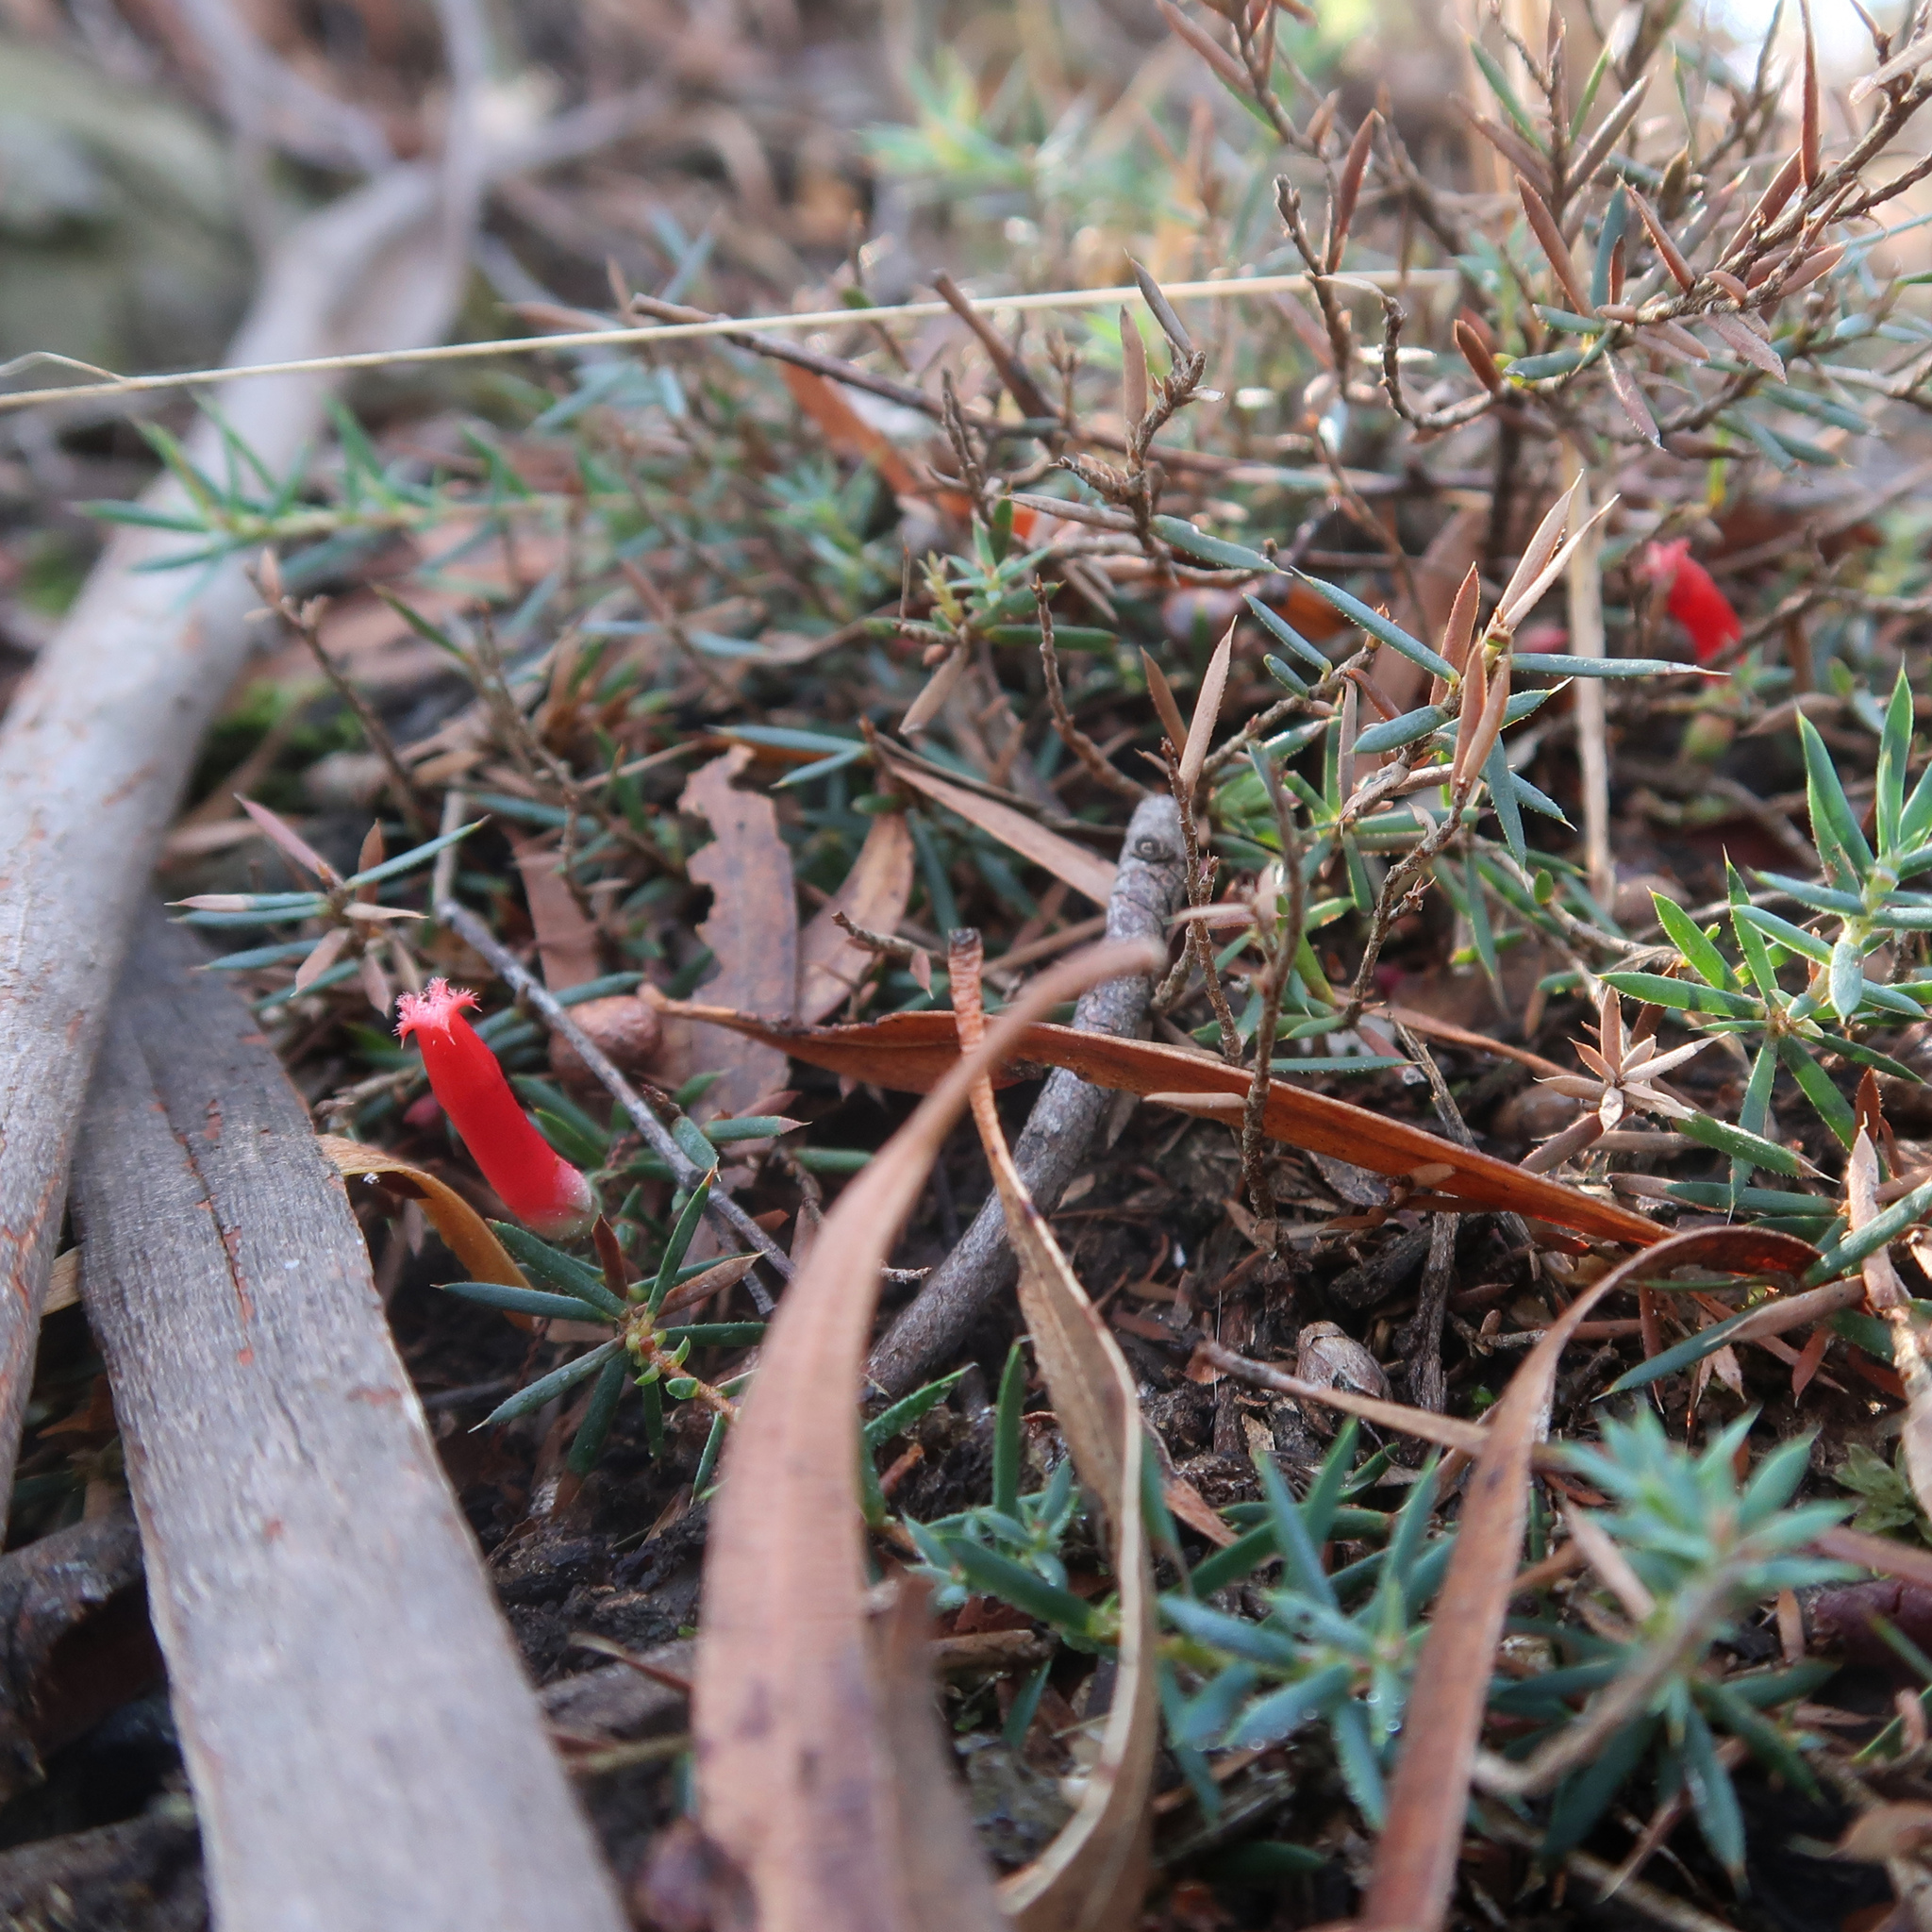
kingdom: Plantae
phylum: Tracheophyta
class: Magnoliopsida
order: Ericales
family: Ericaceae
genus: Styphelia
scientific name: Styphelia humifusa
